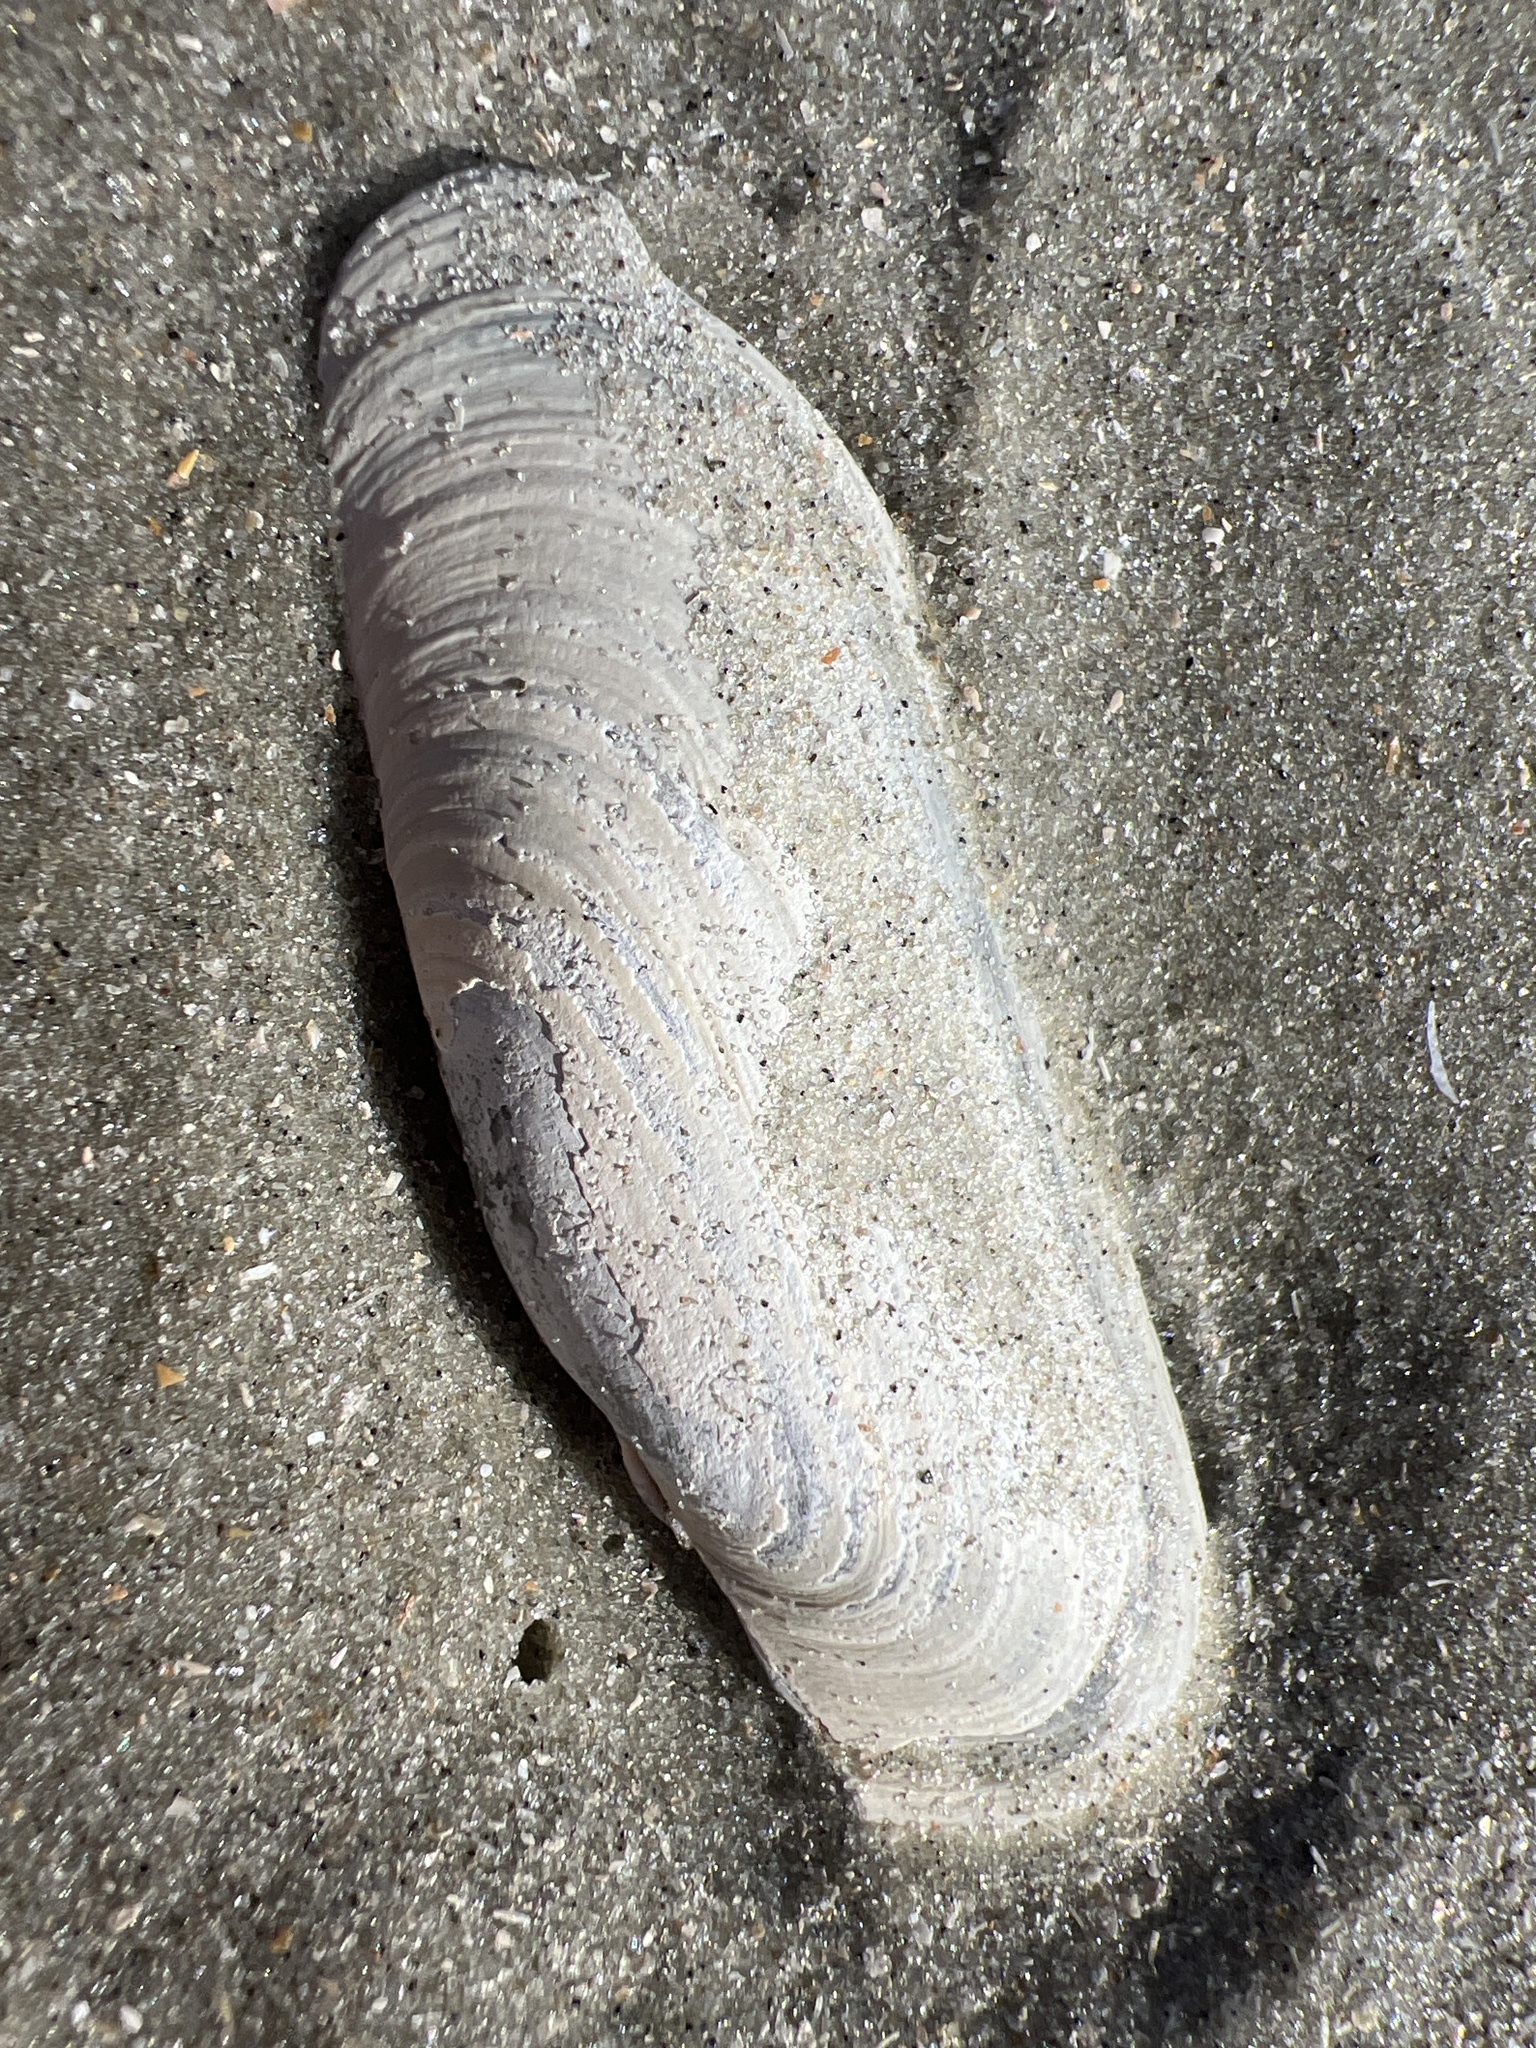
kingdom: Animalia
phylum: Mollusca
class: Bivalvia
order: Cardiida
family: Solecurtidae
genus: Tagelus
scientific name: Tagelus plebeius
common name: Stout tagelus
